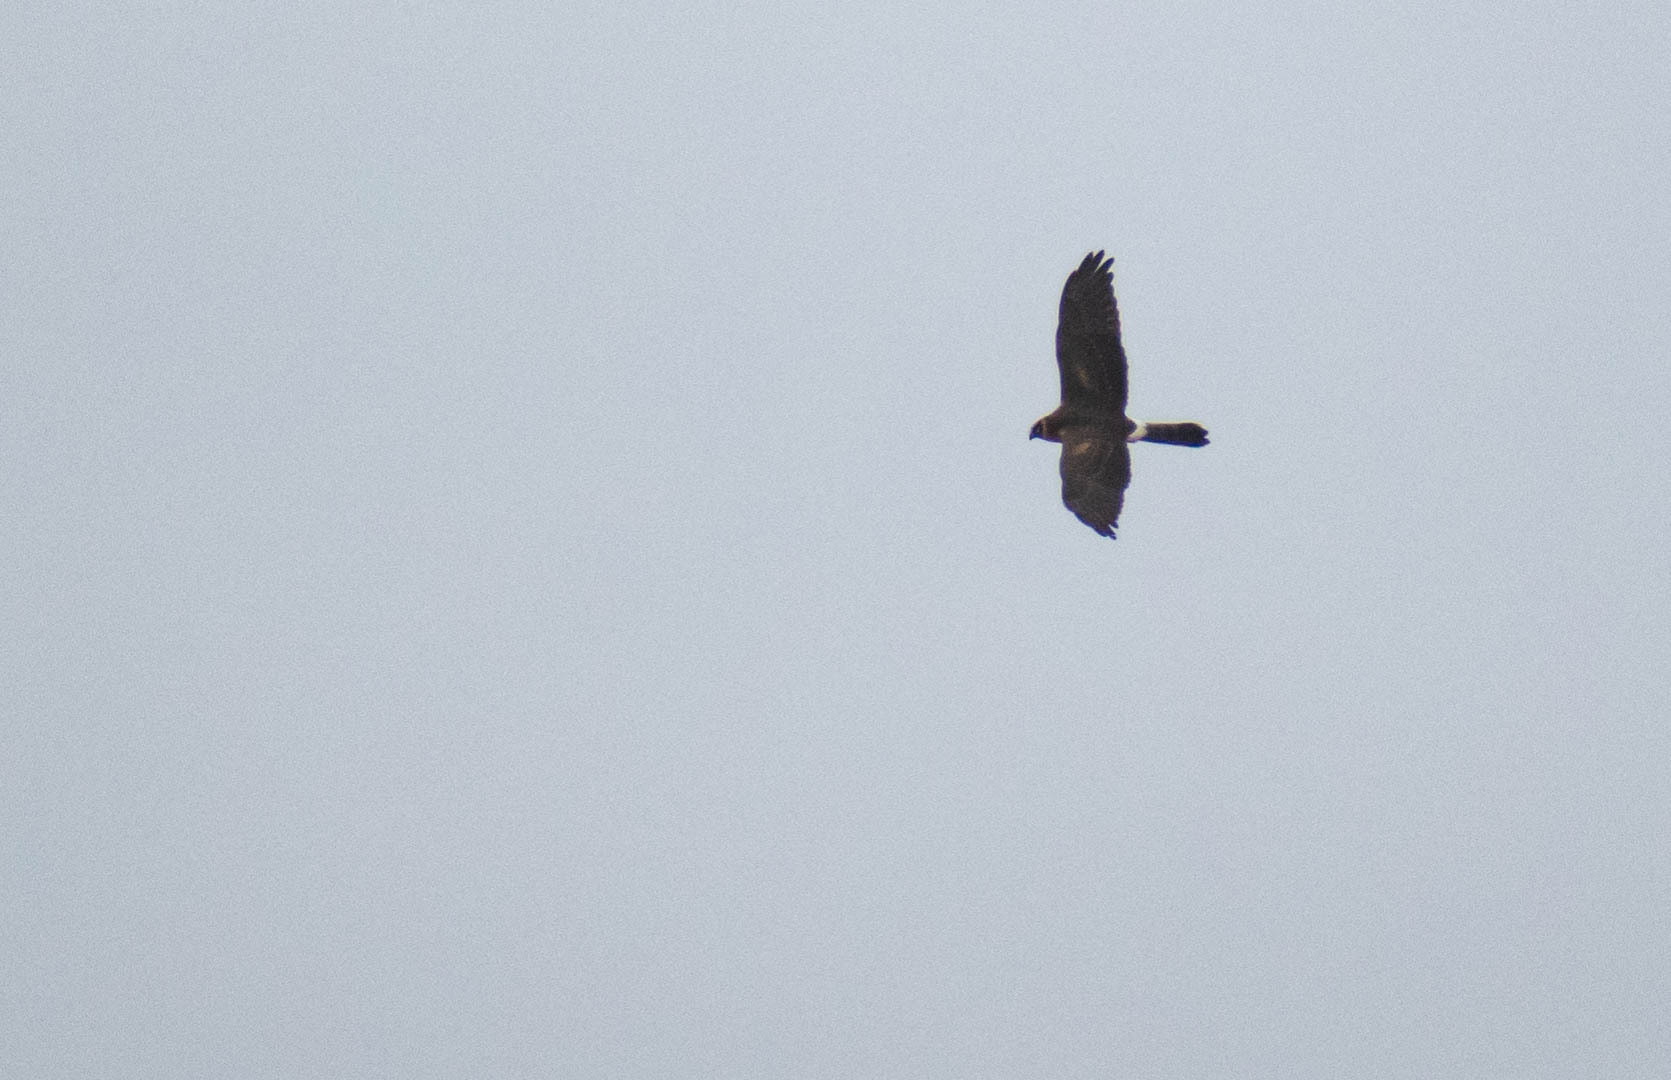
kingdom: Animalia
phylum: Chordata
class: Aves
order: Accipitriformes
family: Accipitridae
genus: Circus
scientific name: Circus macrourus
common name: Pallid harrier
